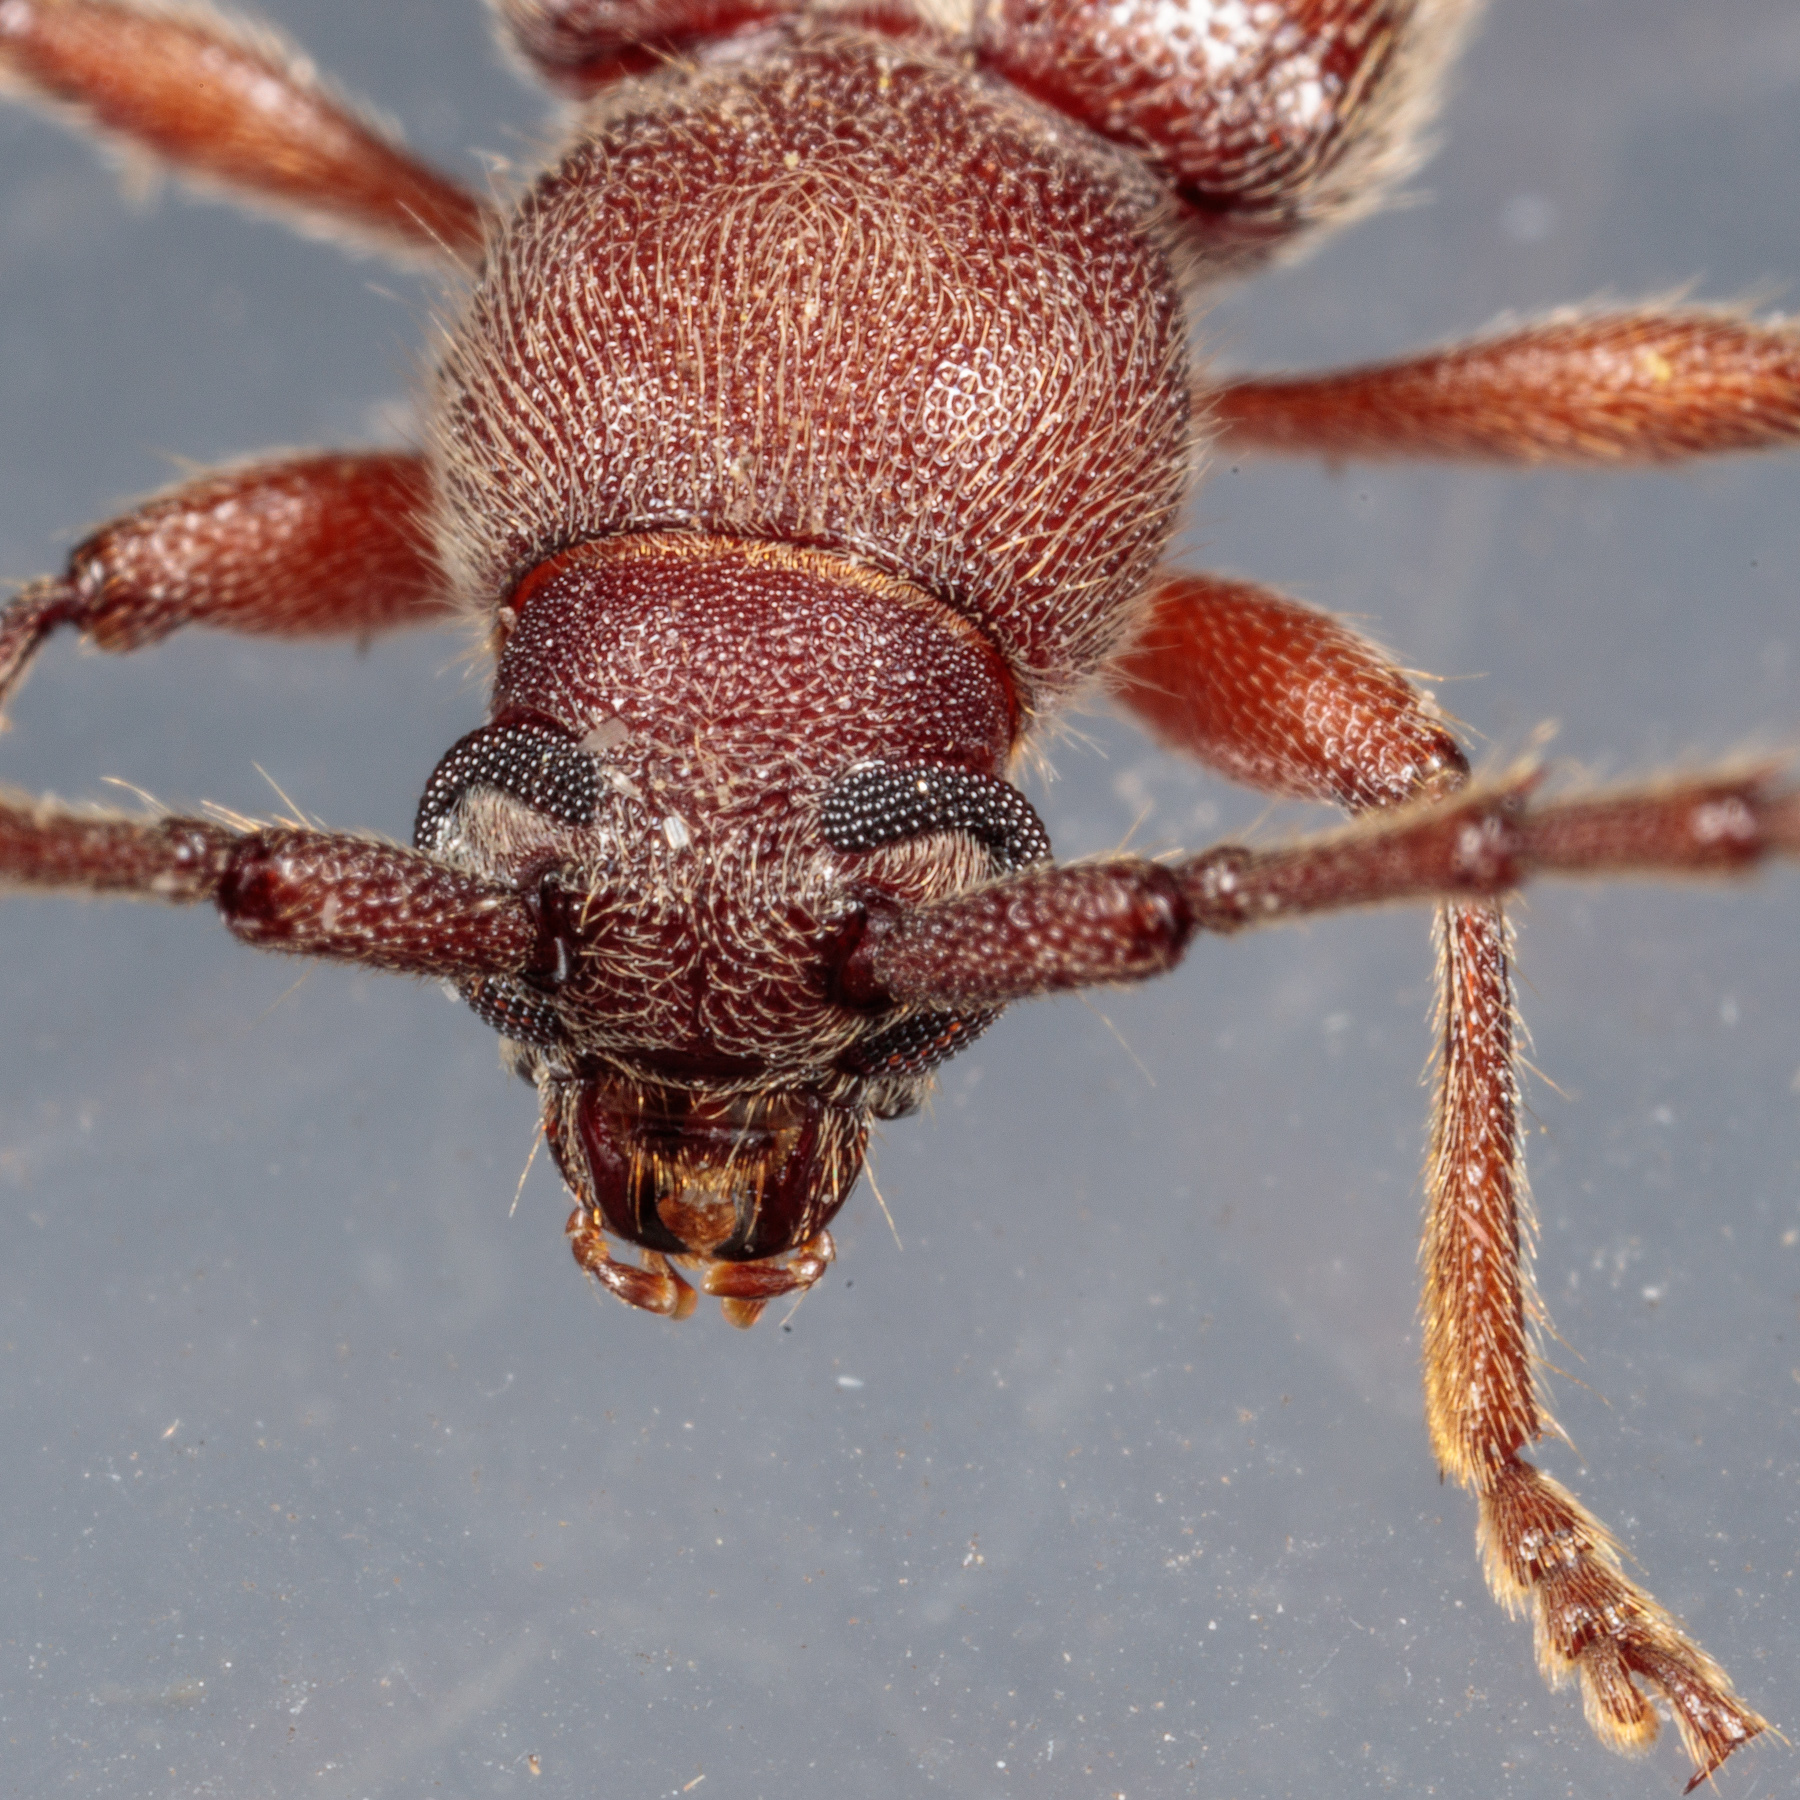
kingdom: Animalia
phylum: Arthropoda
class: Insecta
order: Coleoptera
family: Cerambycidae
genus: Anelaphus
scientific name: Anelaphus moestus
